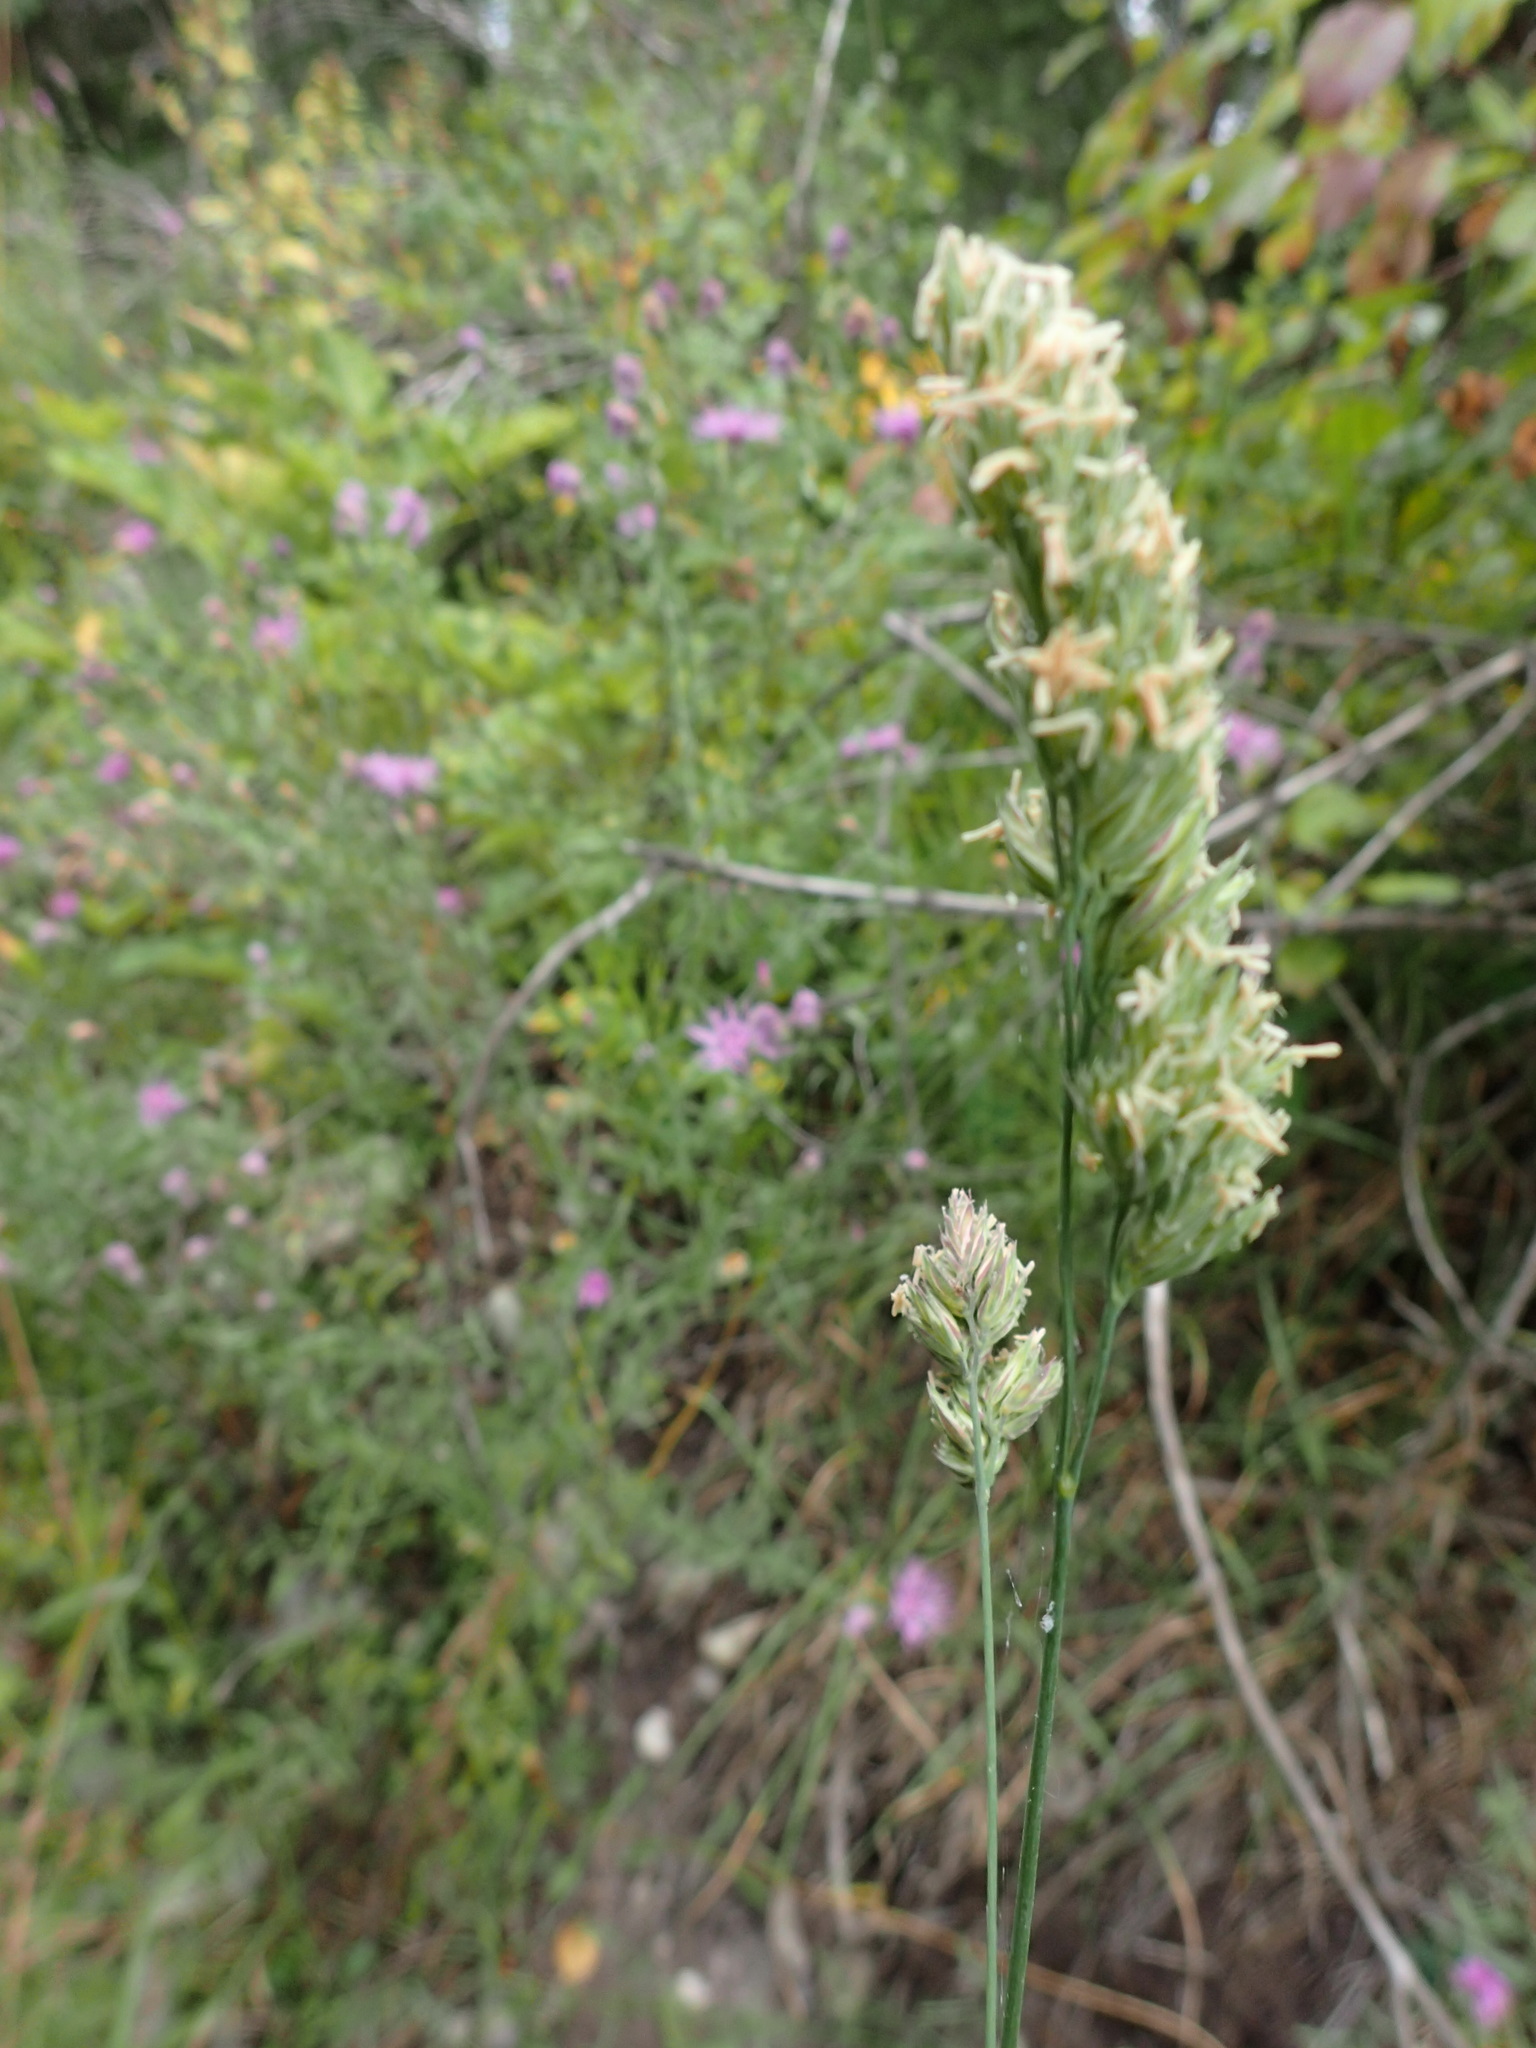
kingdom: Plantae
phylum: Tracheophyta
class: Liliopsida
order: Poales
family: Poaceae
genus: Dactylis
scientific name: Dactylis glomerata
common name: Orchardgrass
